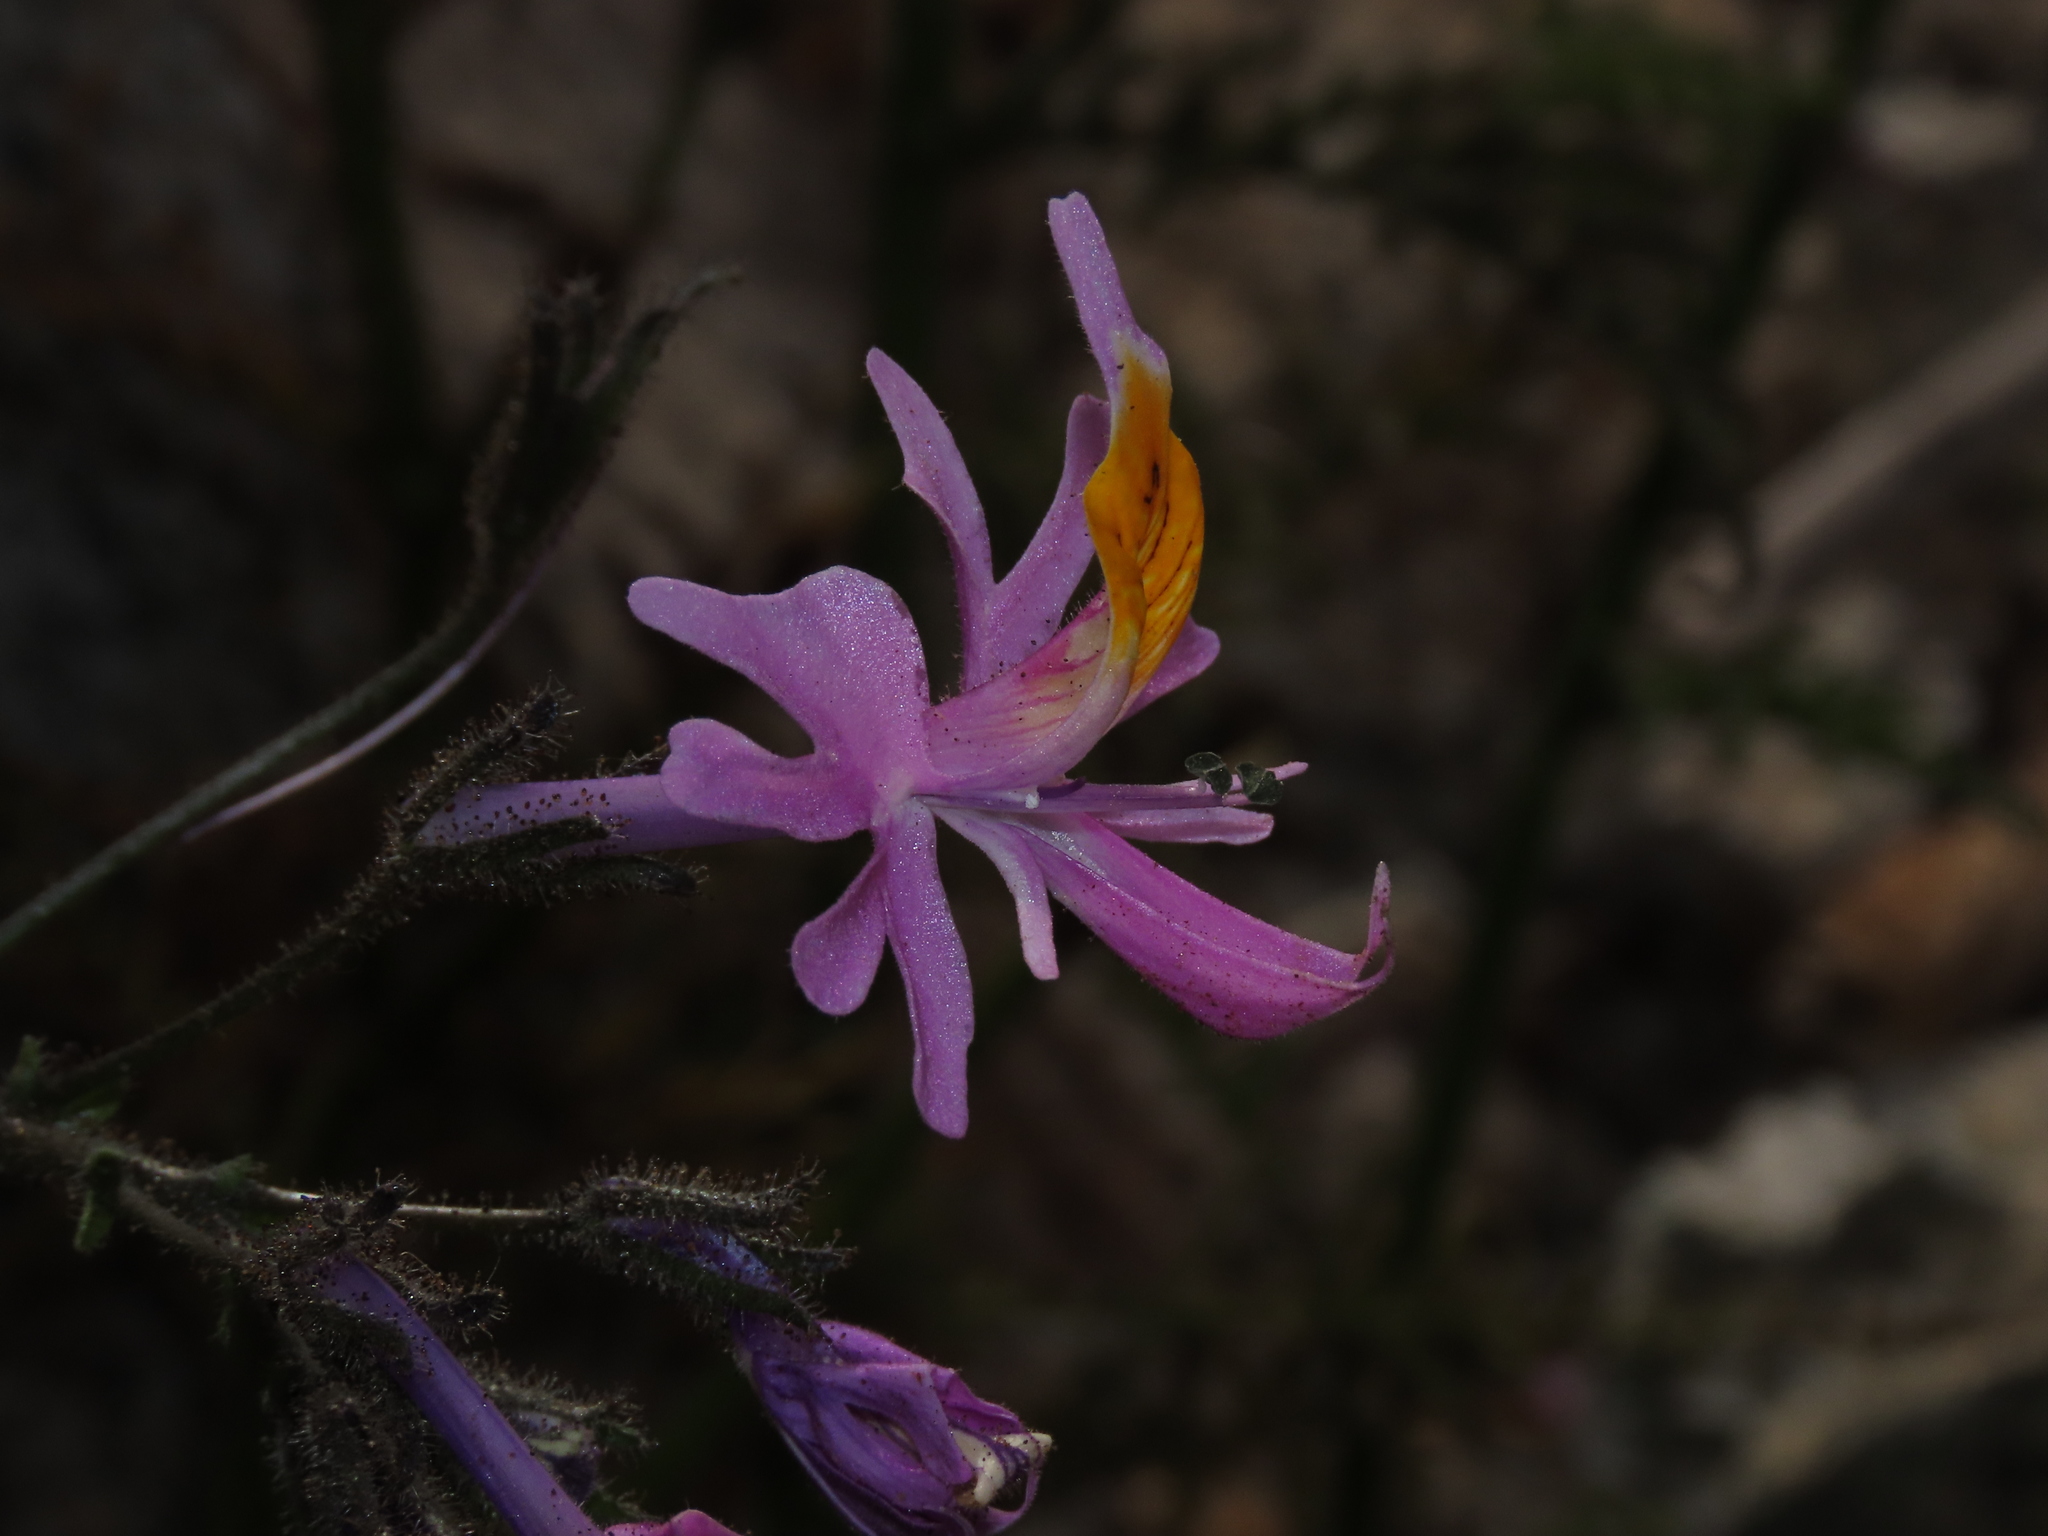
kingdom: Plantae
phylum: Tracheophyta
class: Magnoliopsida
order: Solanales
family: Solanaceae
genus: Schizanthus
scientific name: Schizanthus hookeri
